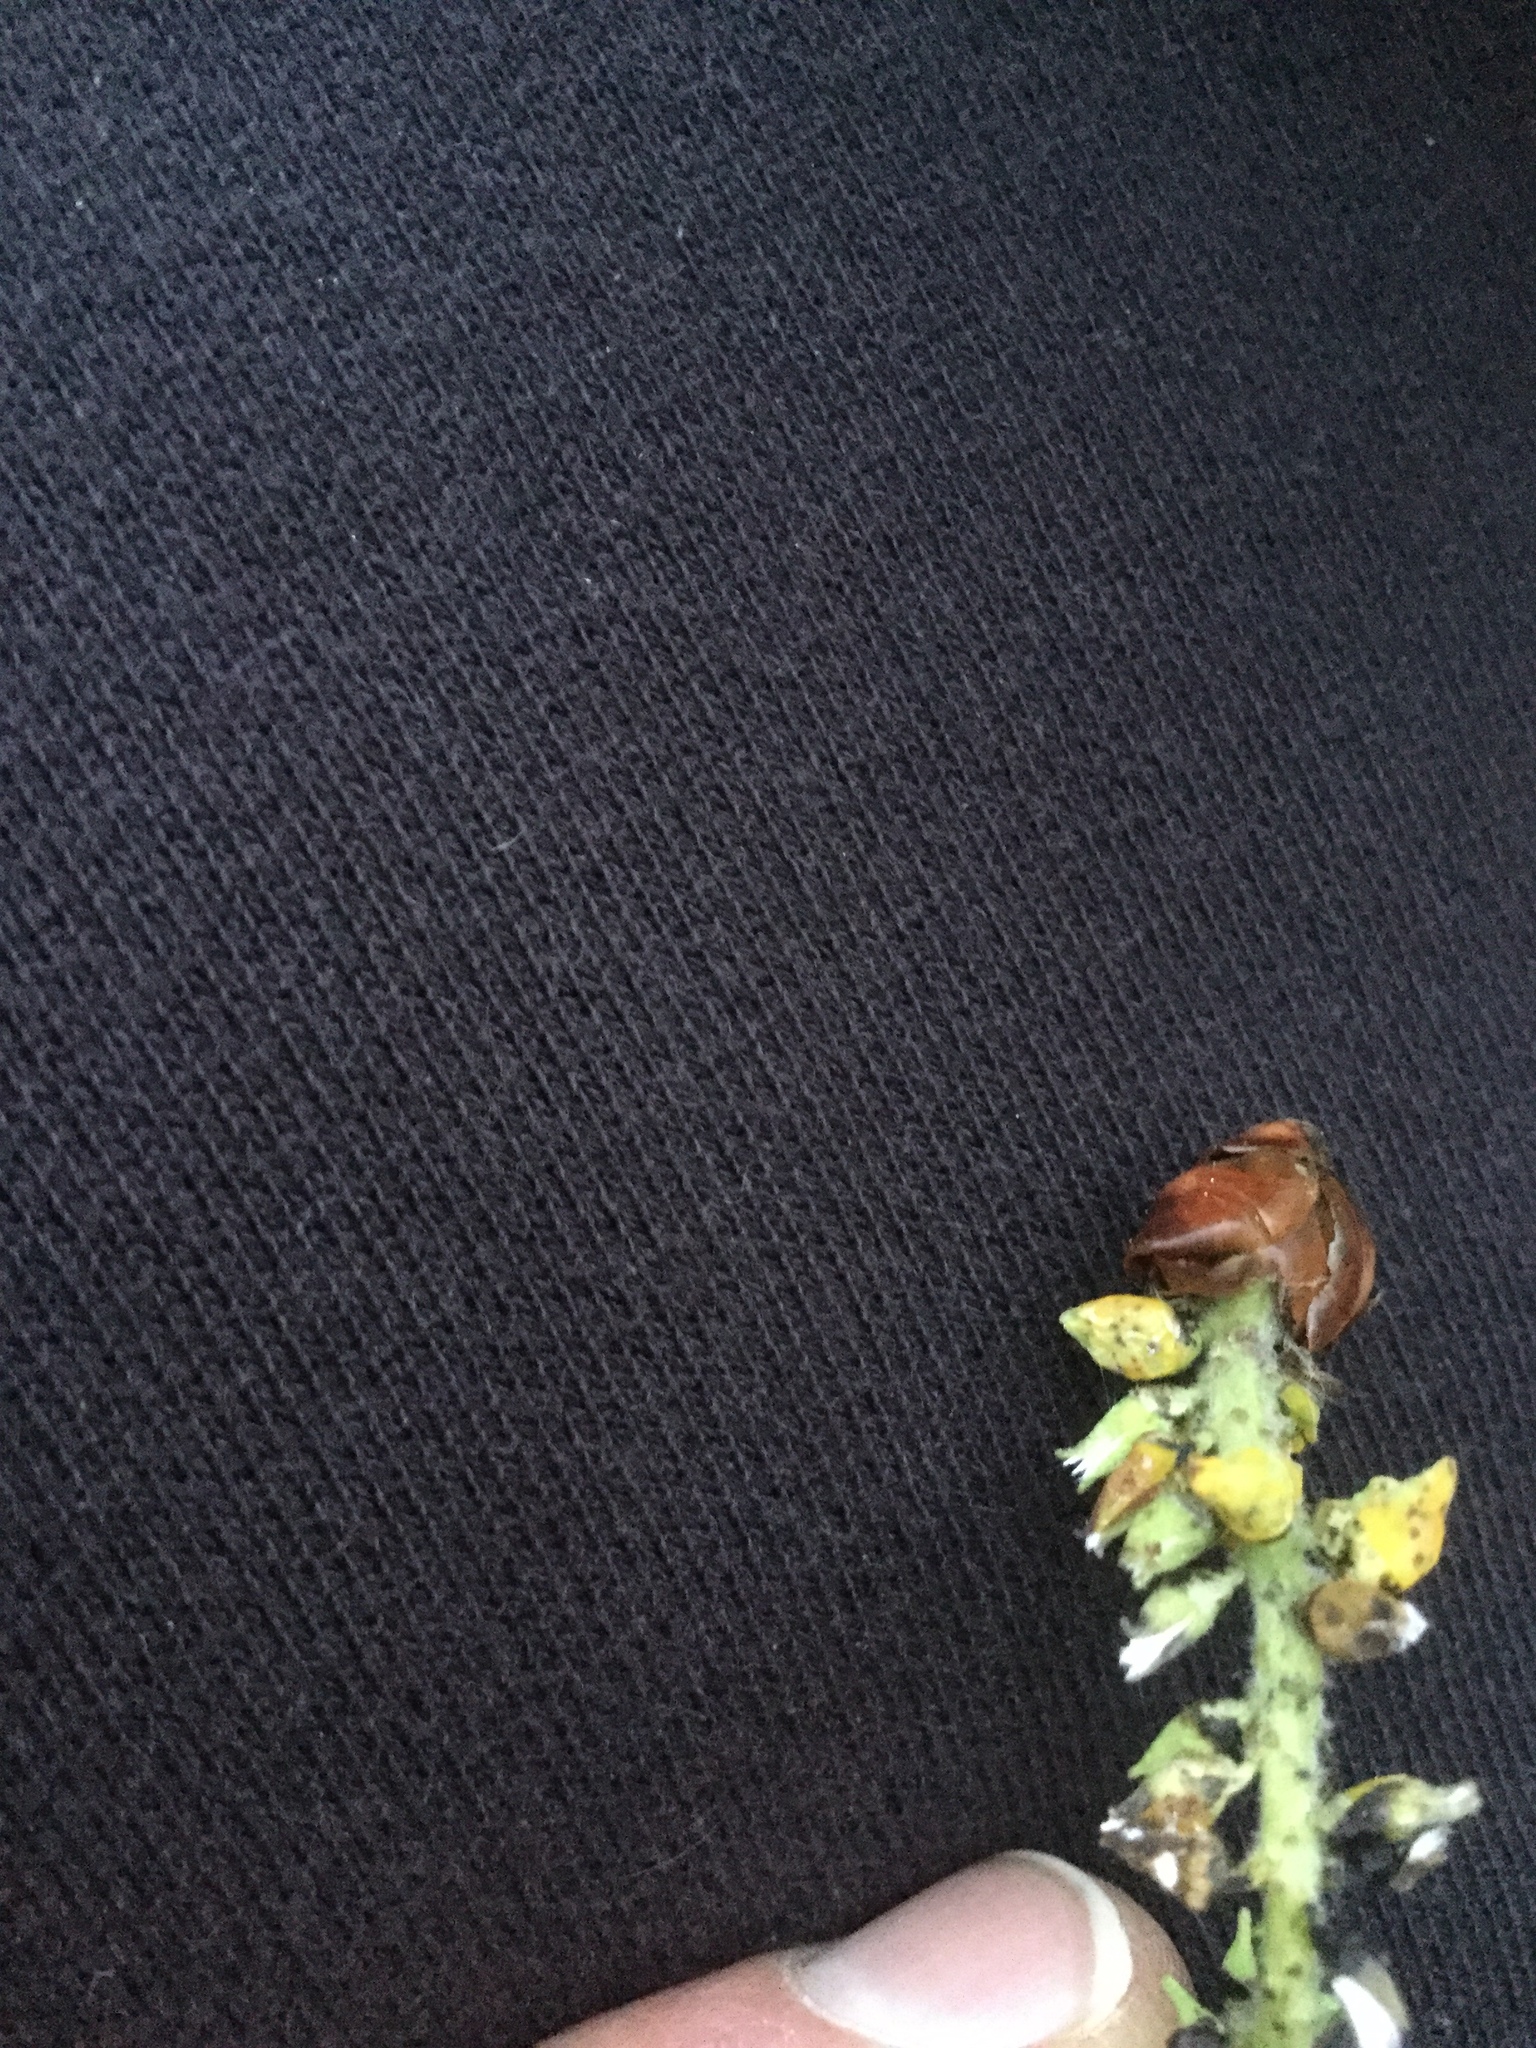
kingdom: Fungi
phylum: Ascomycota
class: Taphrinomycetes
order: Taphrinales
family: Taphrinaceae
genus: Taphrina
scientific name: Taphrina johansonii
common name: Aspen tongue
